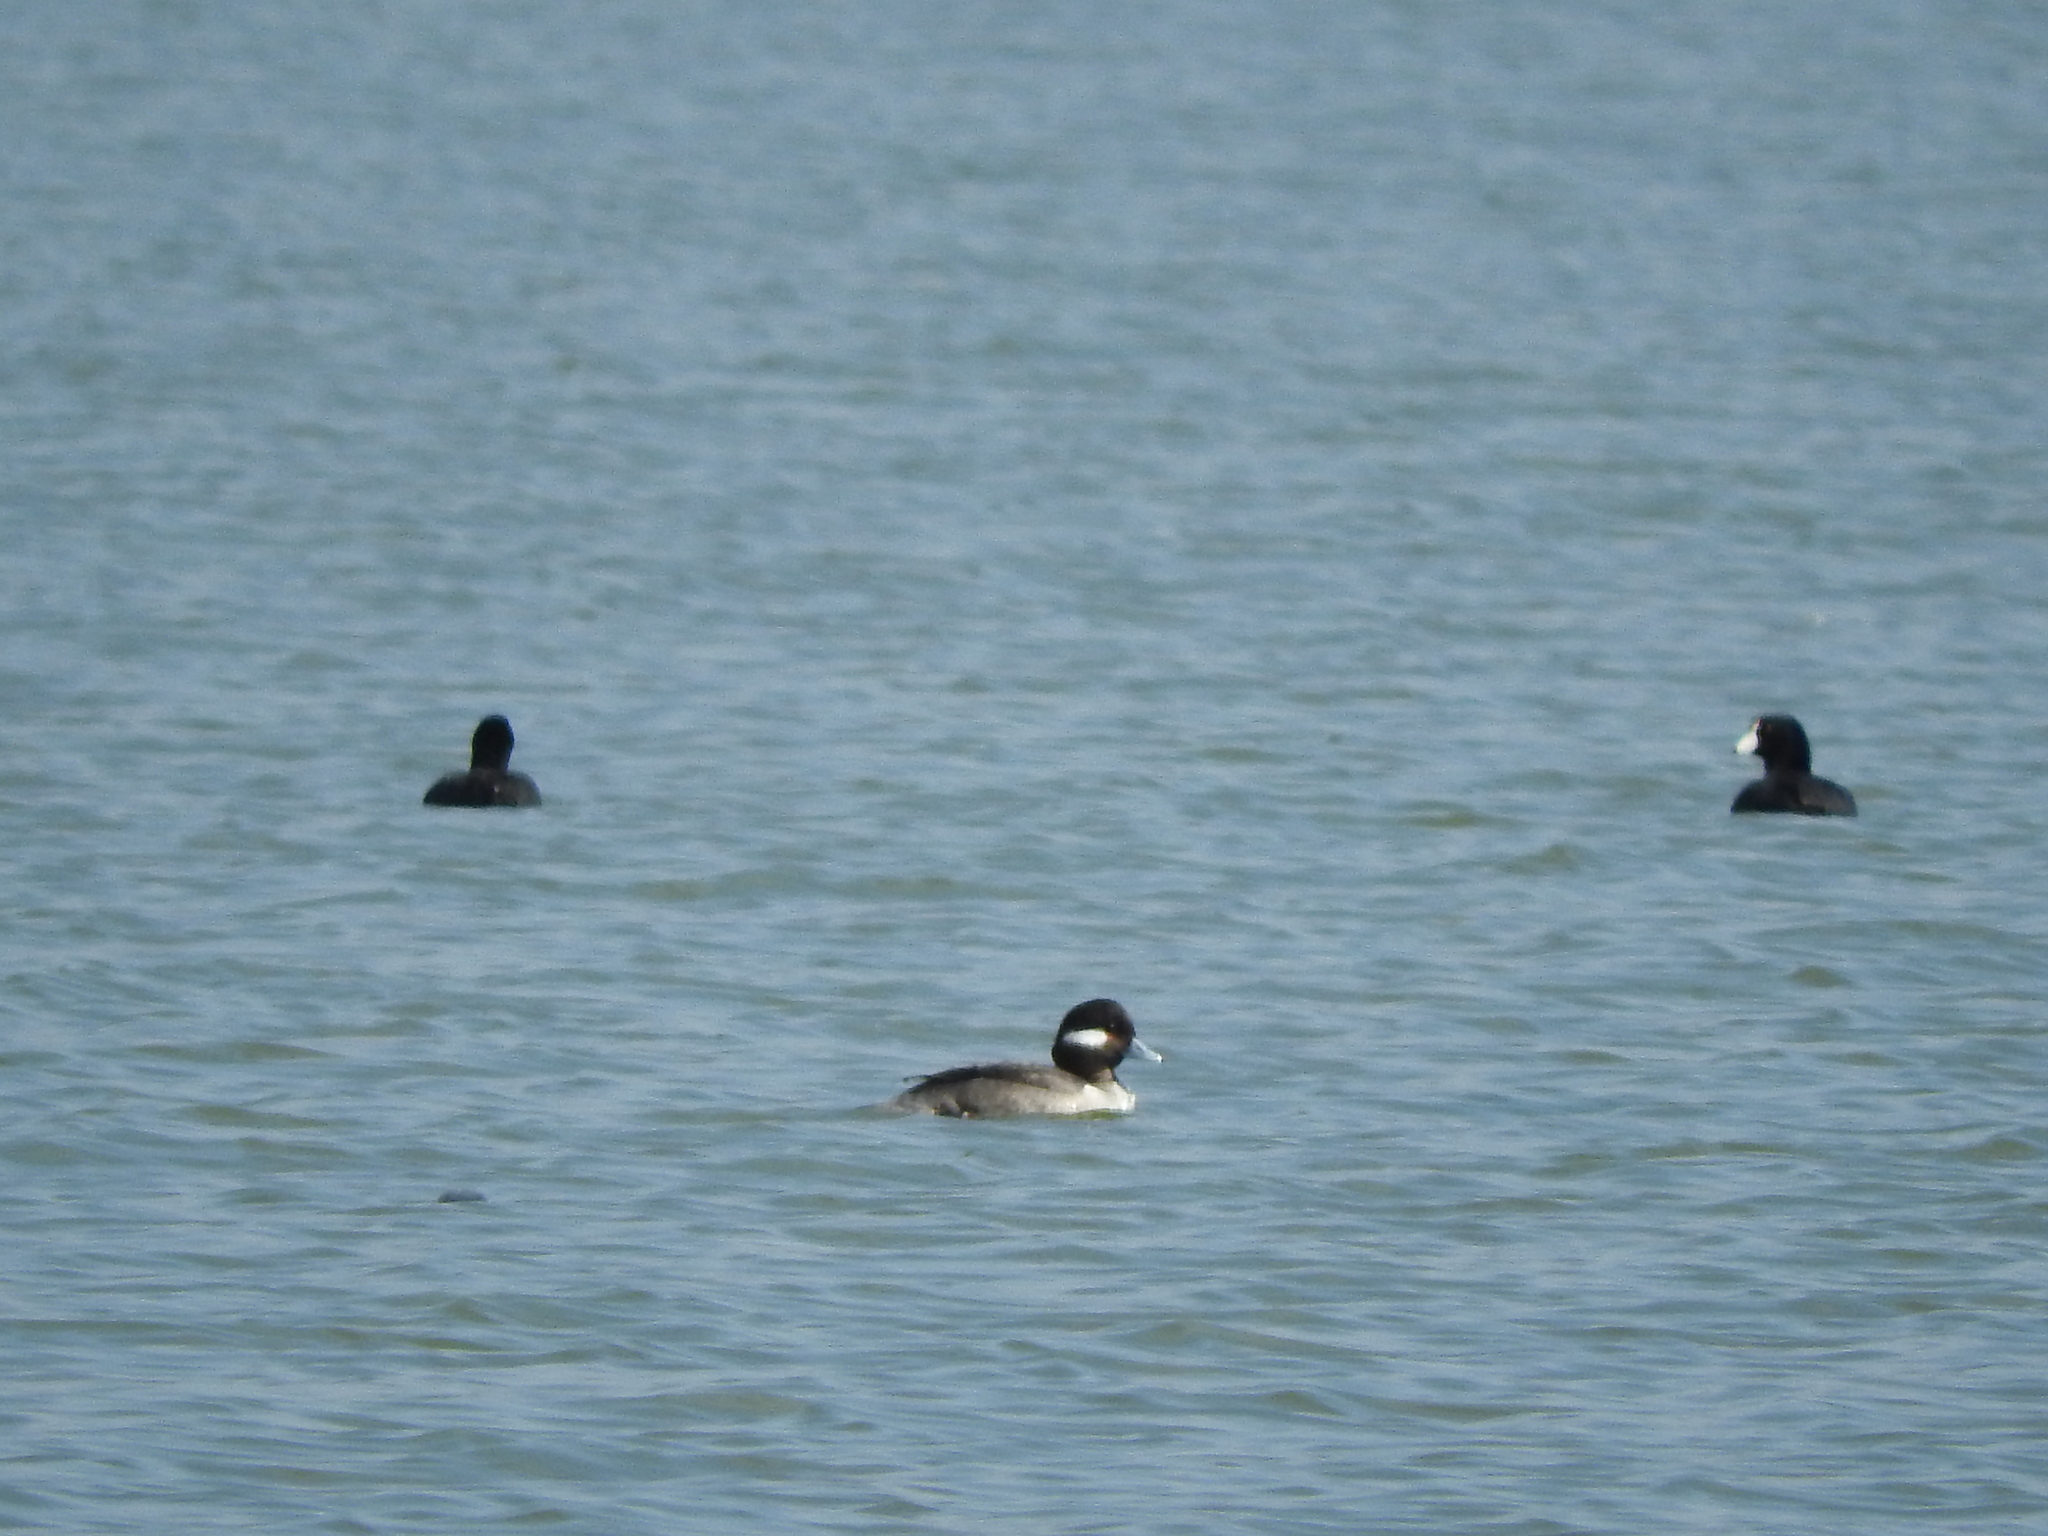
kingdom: Animalia
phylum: Chordata
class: Aves
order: Anseriformes
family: Anatidae
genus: Bucephala
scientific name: Bucephala albeola
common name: Bufflehead
